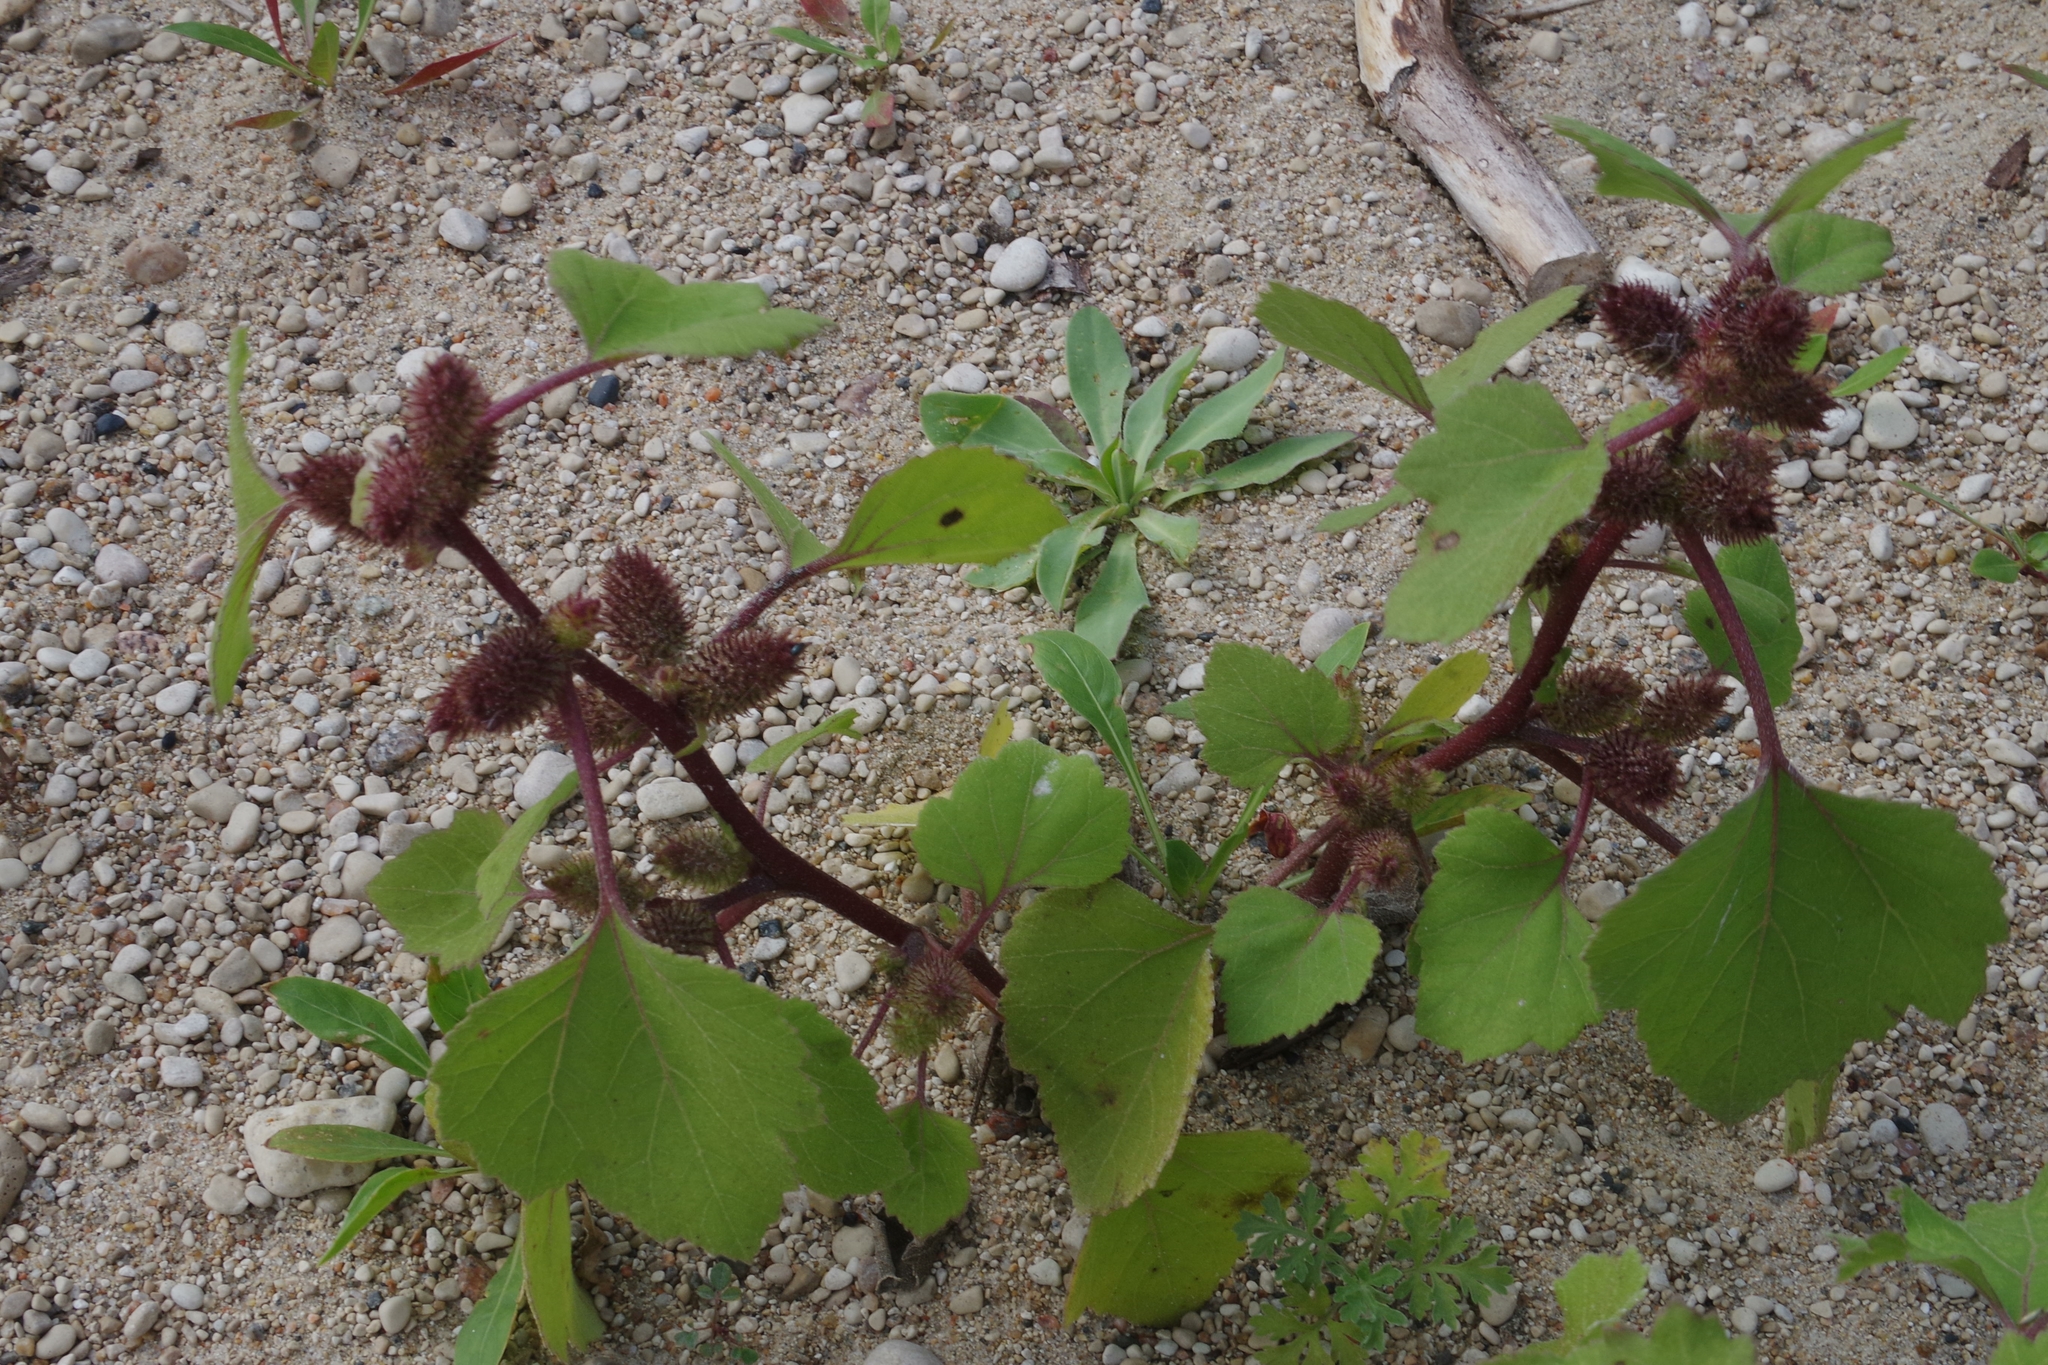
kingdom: Plantae
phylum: Tracheophyta
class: Magnoliopsida
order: Asterales
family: Asteraceae
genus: Xanthium
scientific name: Xanthium strumarium
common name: Rough cocklebur
